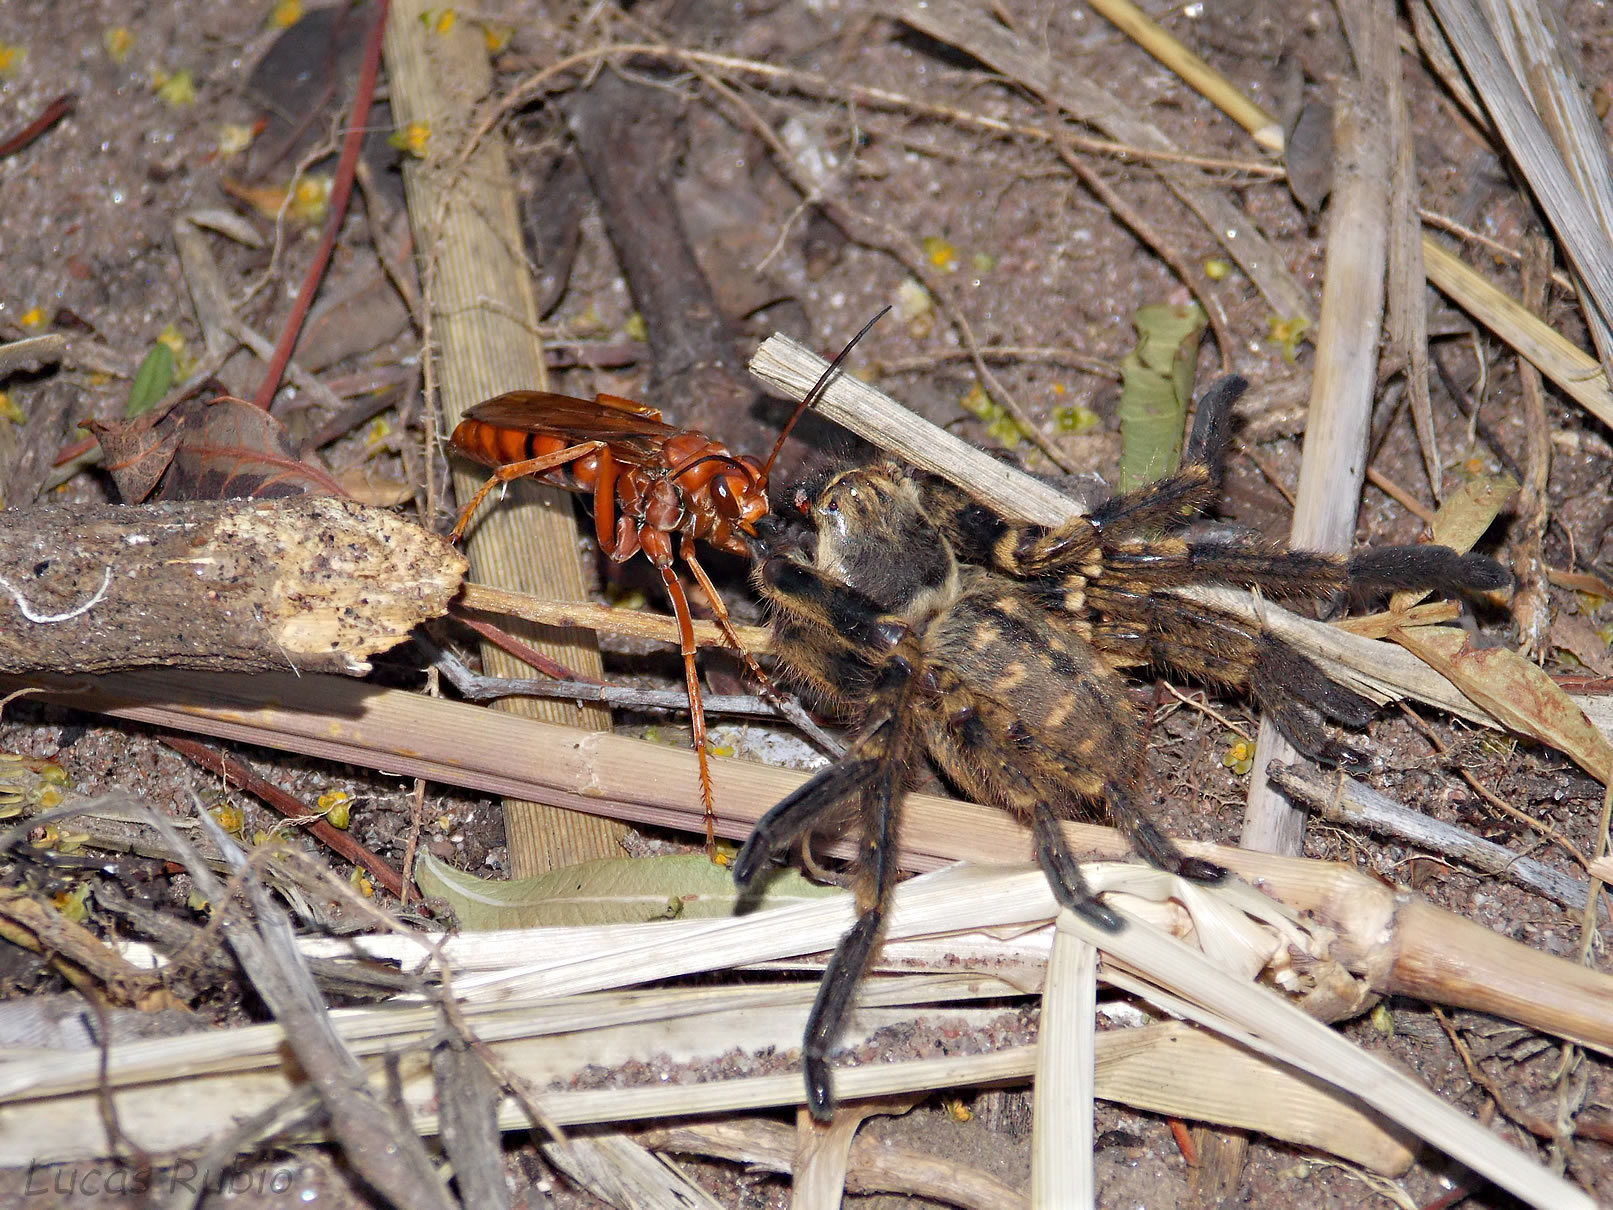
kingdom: Animalia
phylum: Arthropoda
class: Insecta
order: Hymenoptera
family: Pompilidae
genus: Tachypompilus
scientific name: Tachypompilus erubescens
